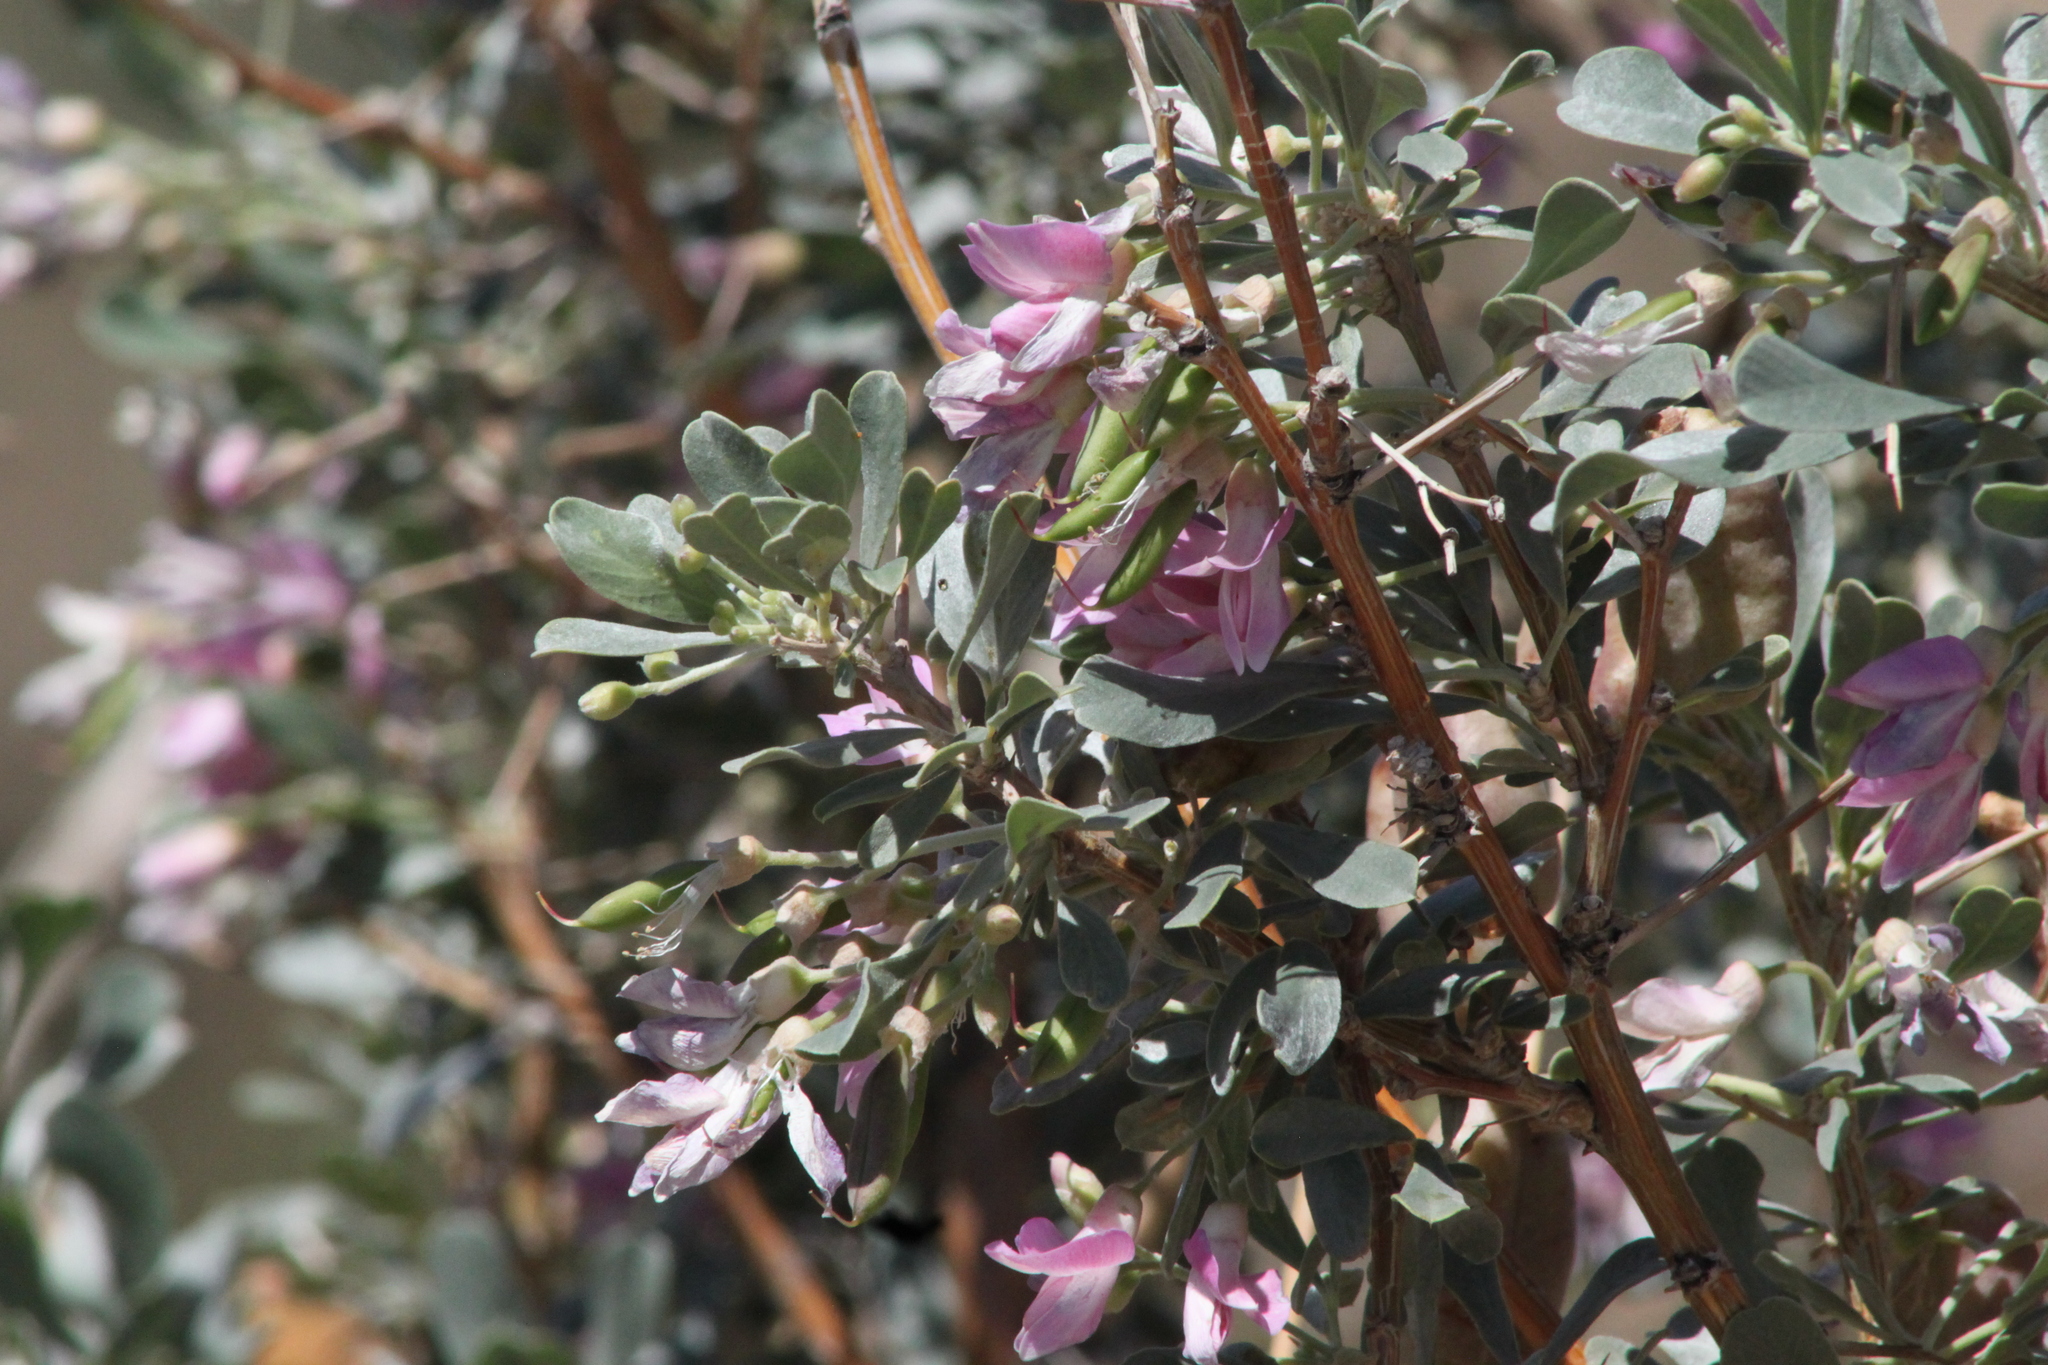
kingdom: Plantae
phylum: Tracheophyta
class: Magnoliopsida
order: Fabales
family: Fabaceae
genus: Caragana
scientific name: Caragana halodendron
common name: Siberian salt-tree
